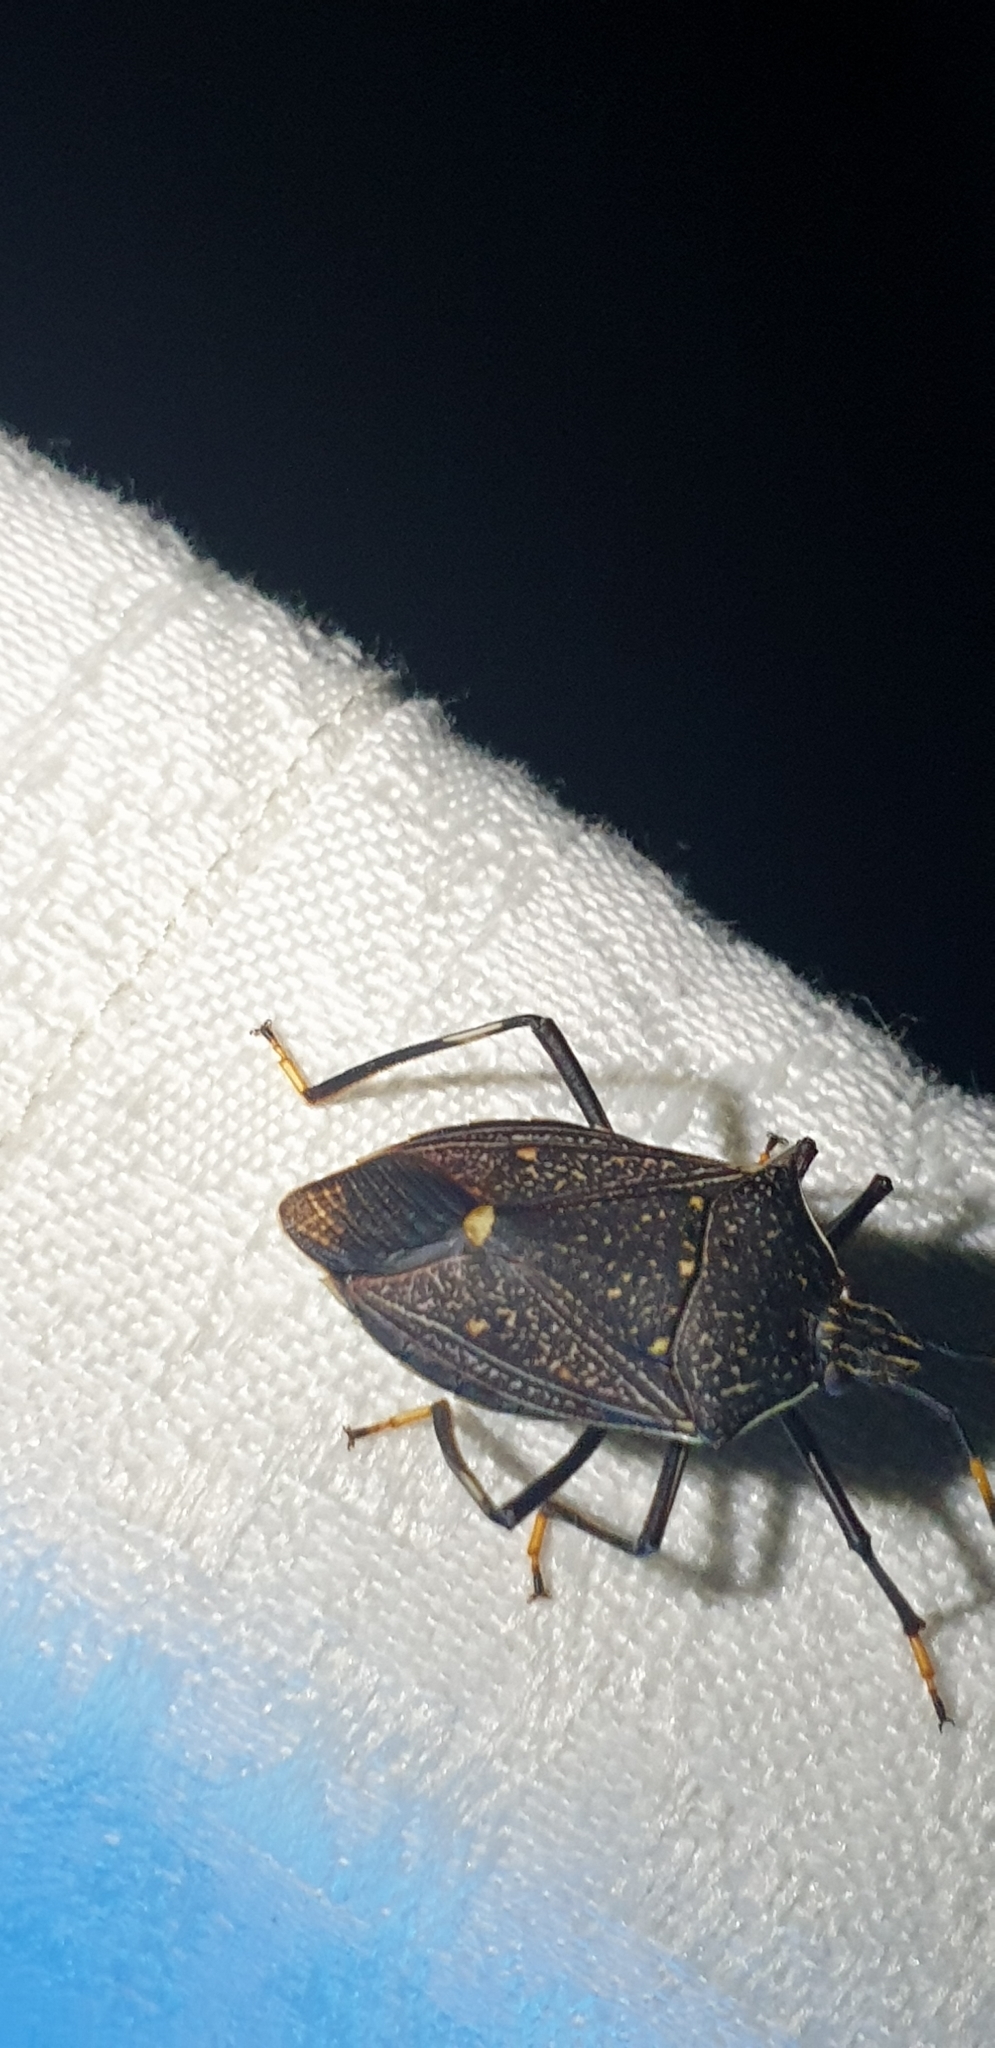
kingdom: Animalia
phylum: Arthropoda
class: Insecta
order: Hemiptera
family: Pentatomidae
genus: Poecilometis
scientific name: Poecilometis
